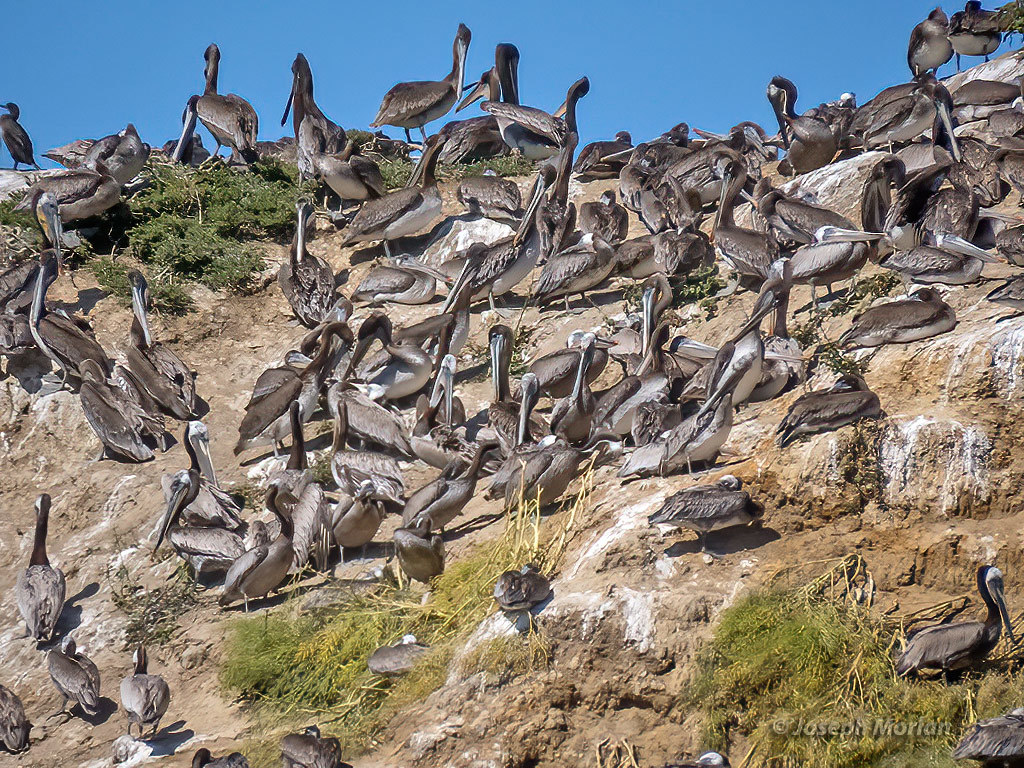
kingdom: Animalia
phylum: Chordata
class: Aves
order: Pelecaniformes
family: Pelecanidae
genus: Pelecanus
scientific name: Pelecanus occidentalis
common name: Brown pelican
